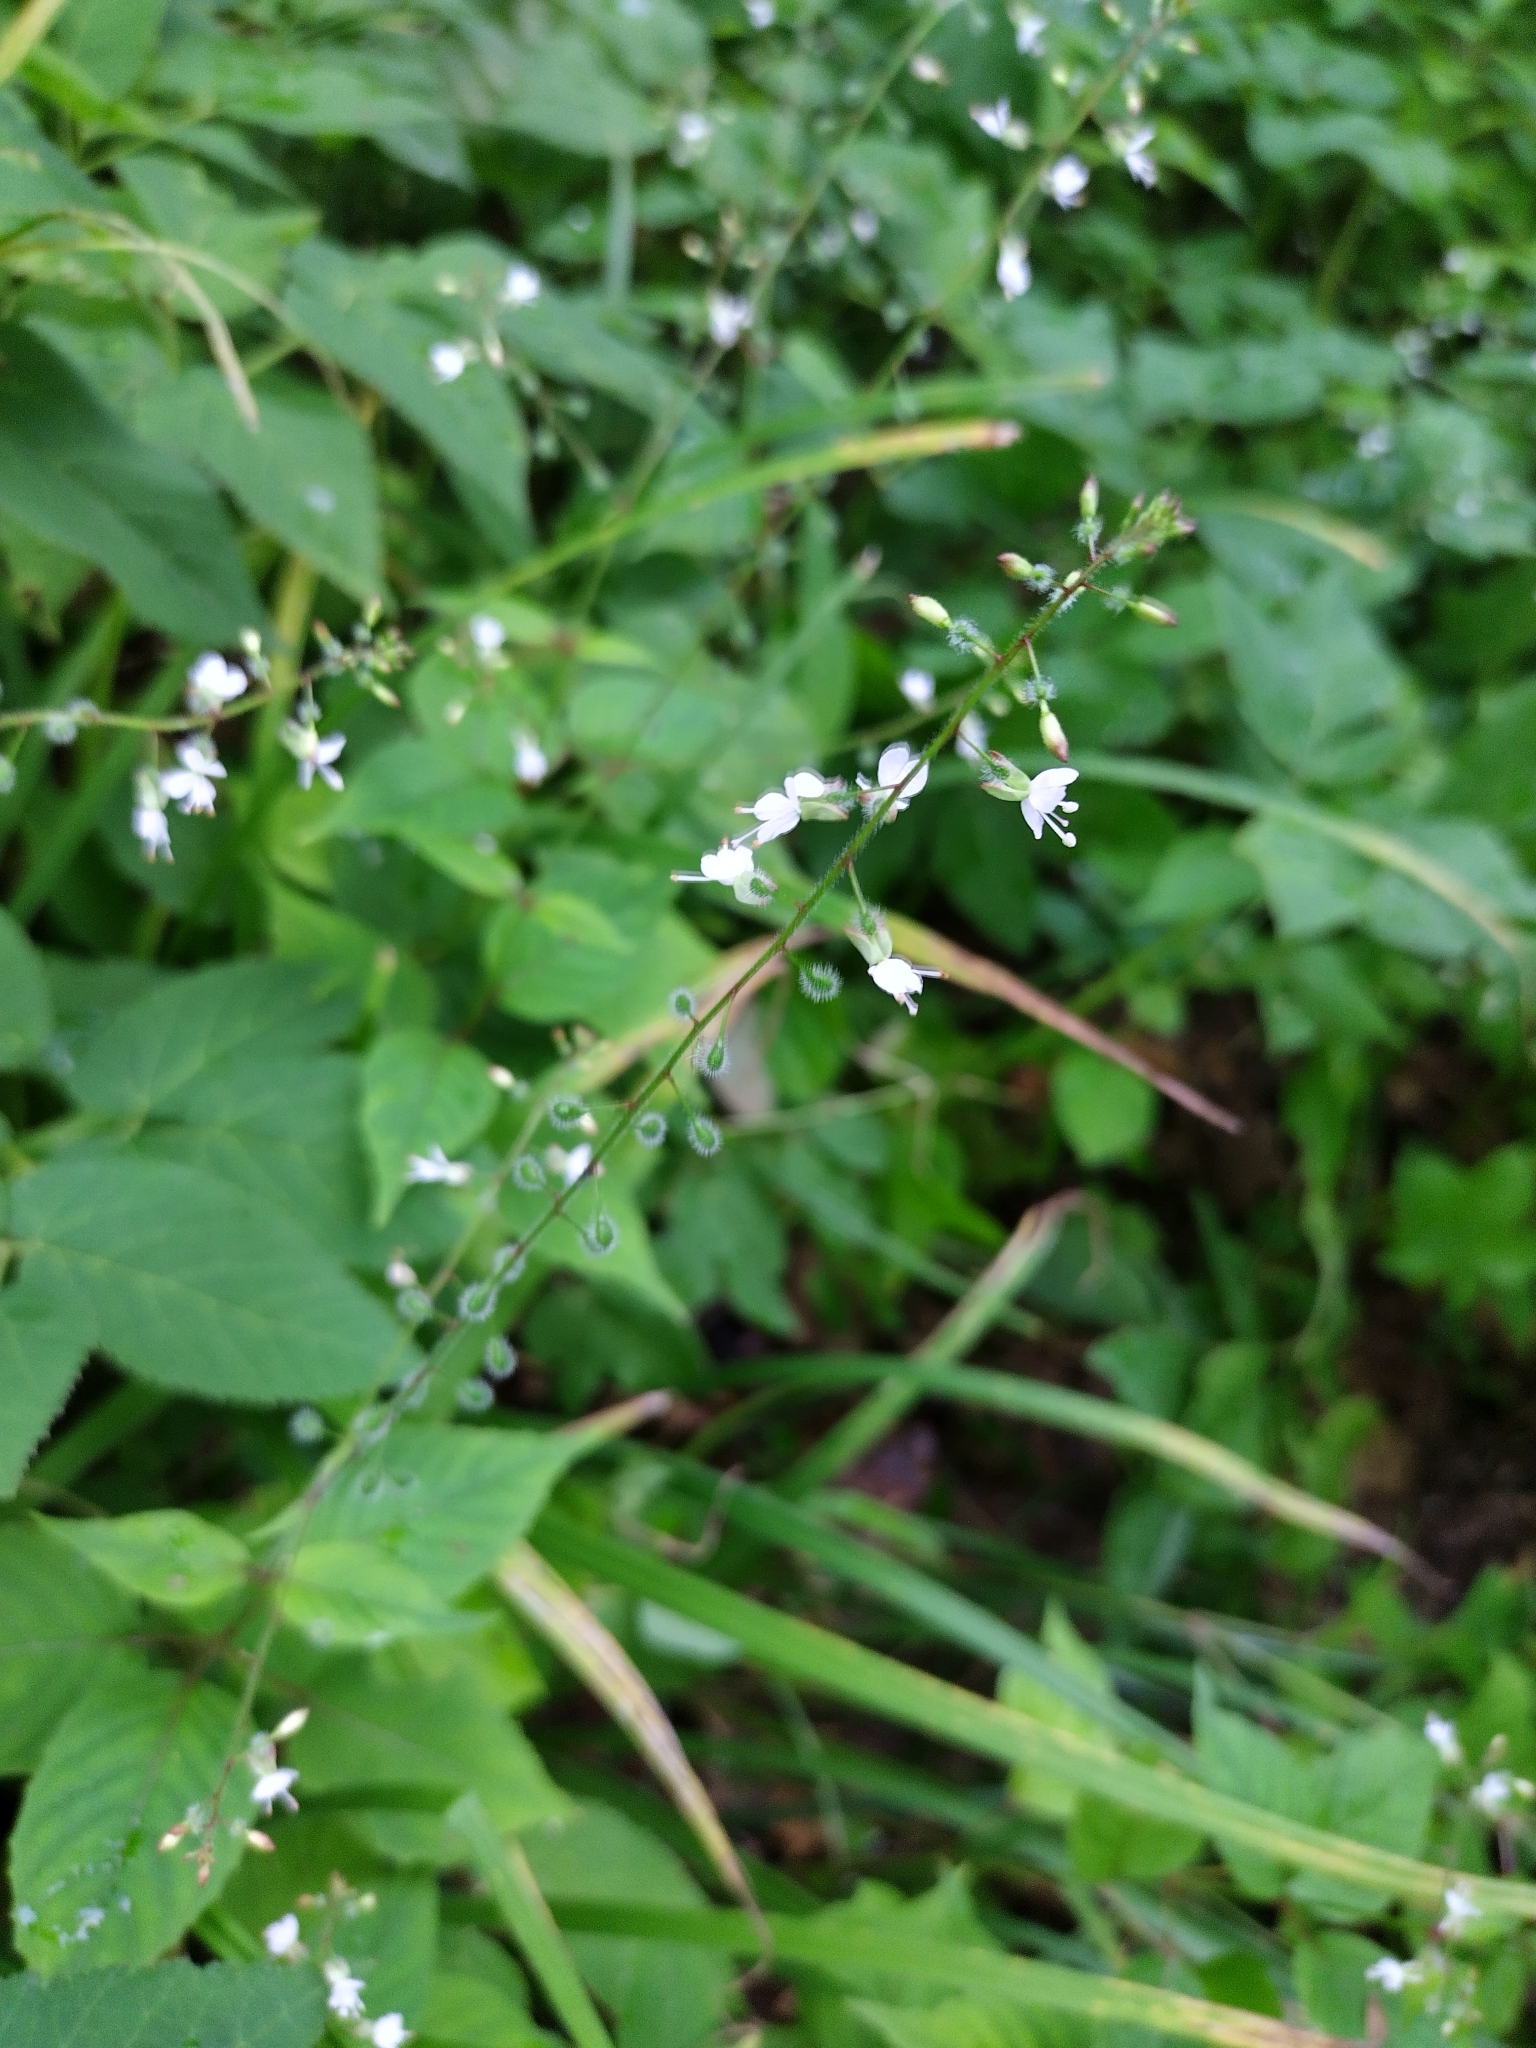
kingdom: Plantae
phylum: Tracheophyta
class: Magnoliopsida
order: Myrtales
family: Onagraceae
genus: Circaea
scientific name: Circaea lutetiana
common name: Enchanter's-nightshade
